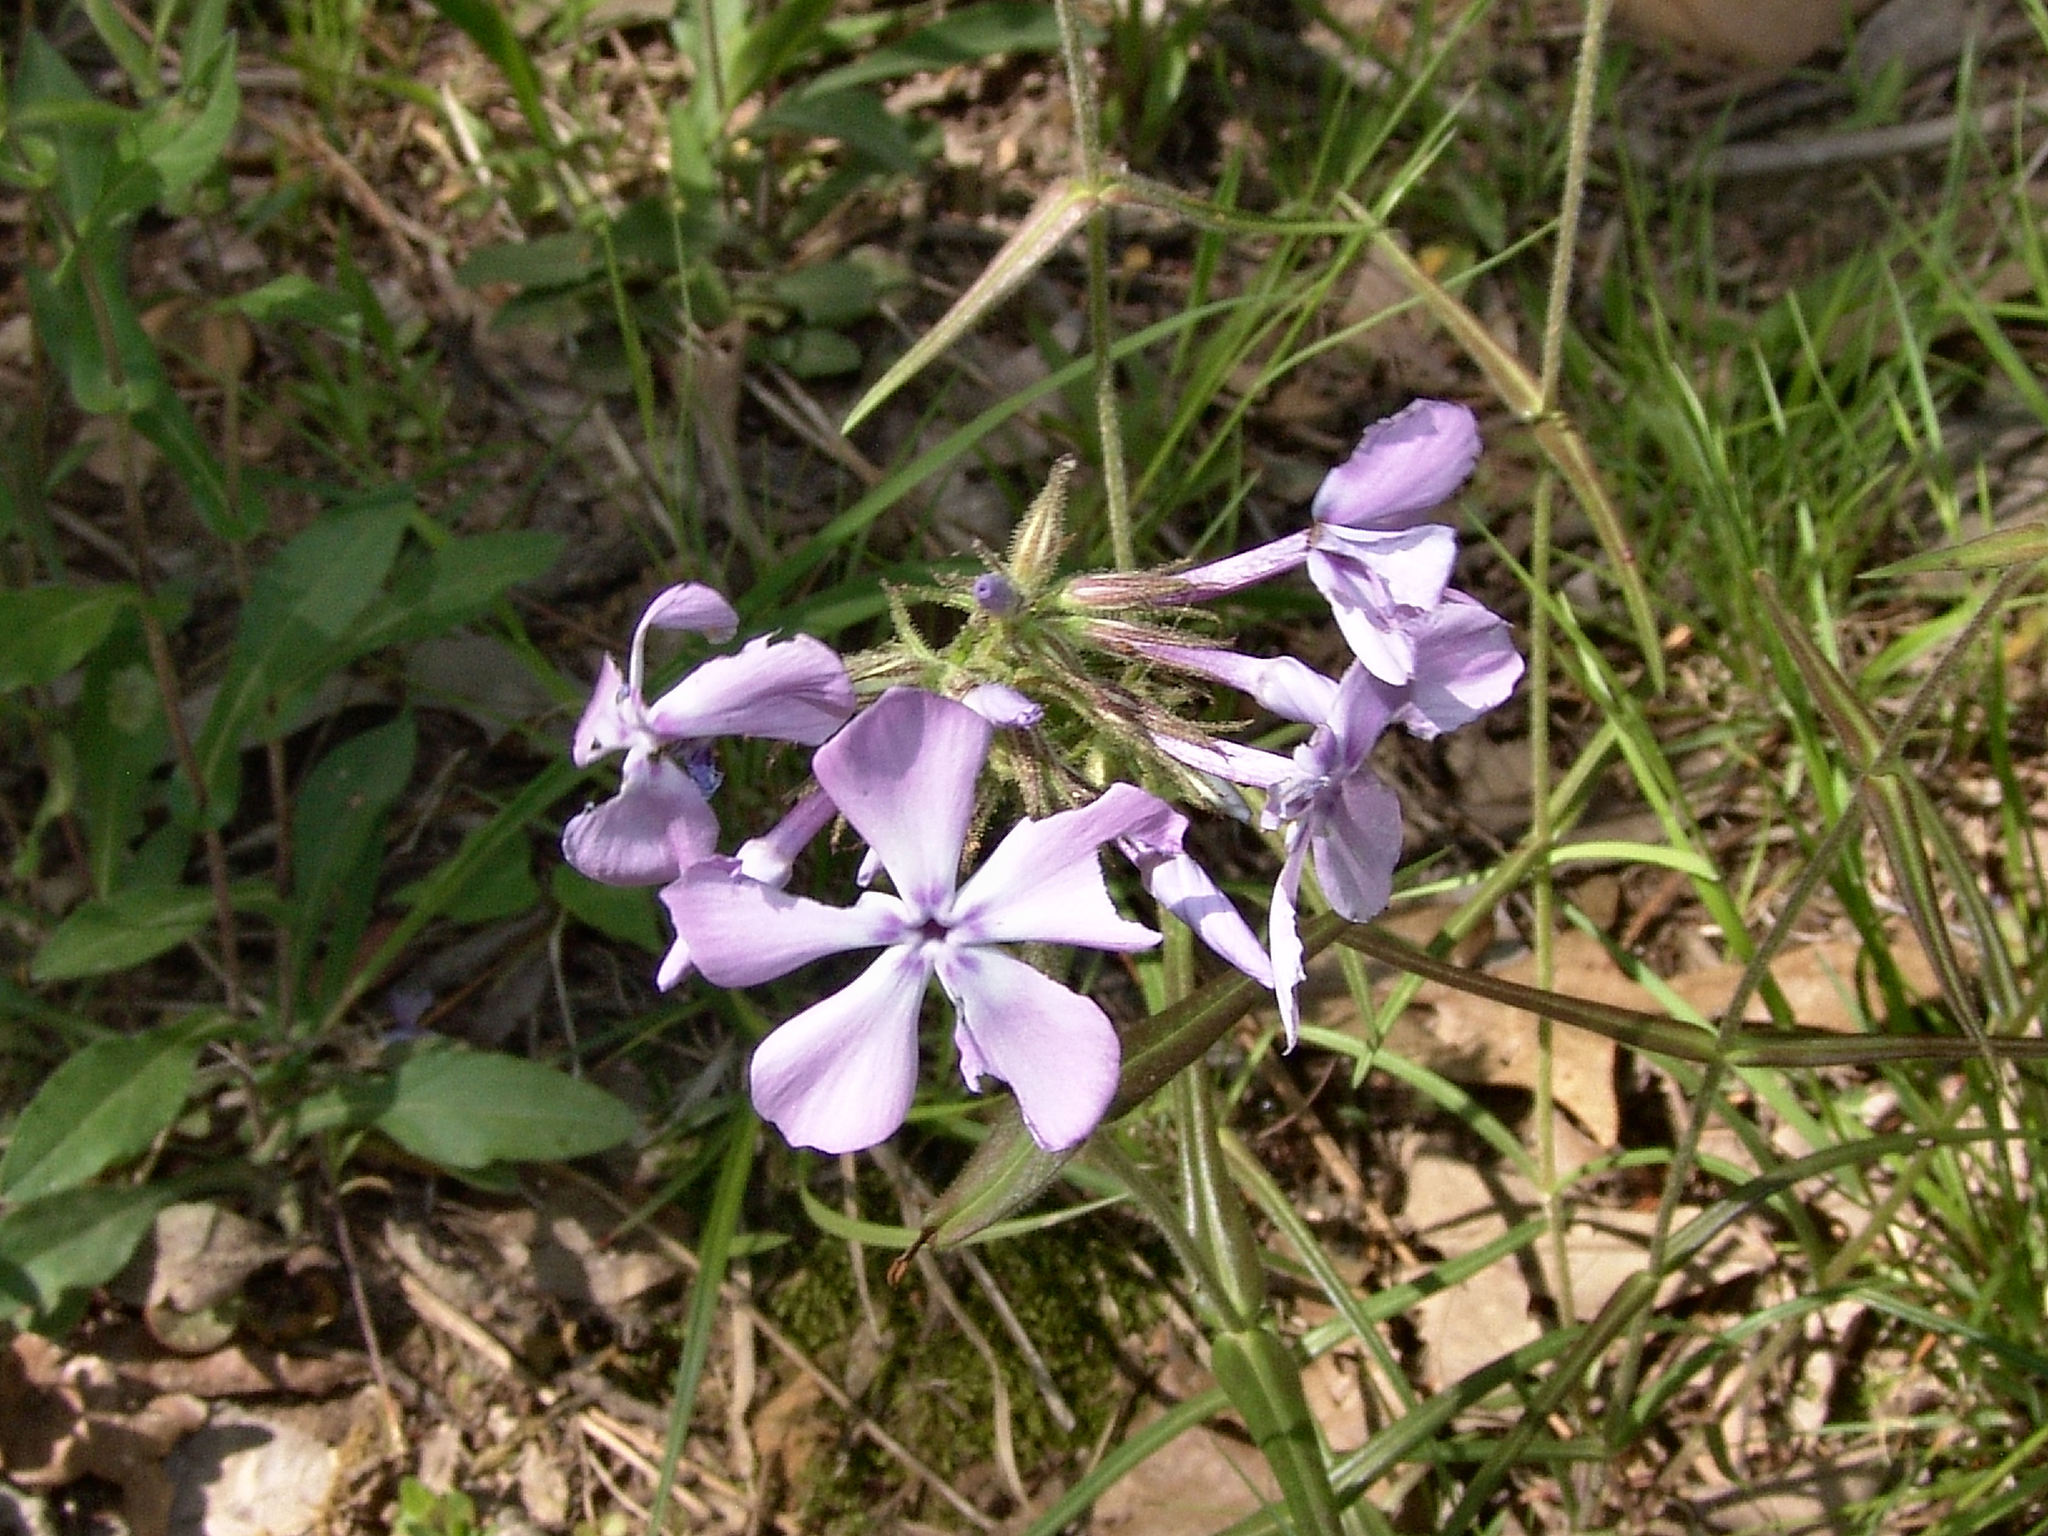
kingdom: Plantae
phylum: Tracheophyta
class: Magnoliopsida
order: Ericales
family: Polemoniaceae
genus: Phlox
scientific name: Phlox pilosa
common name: Prairie phlox
